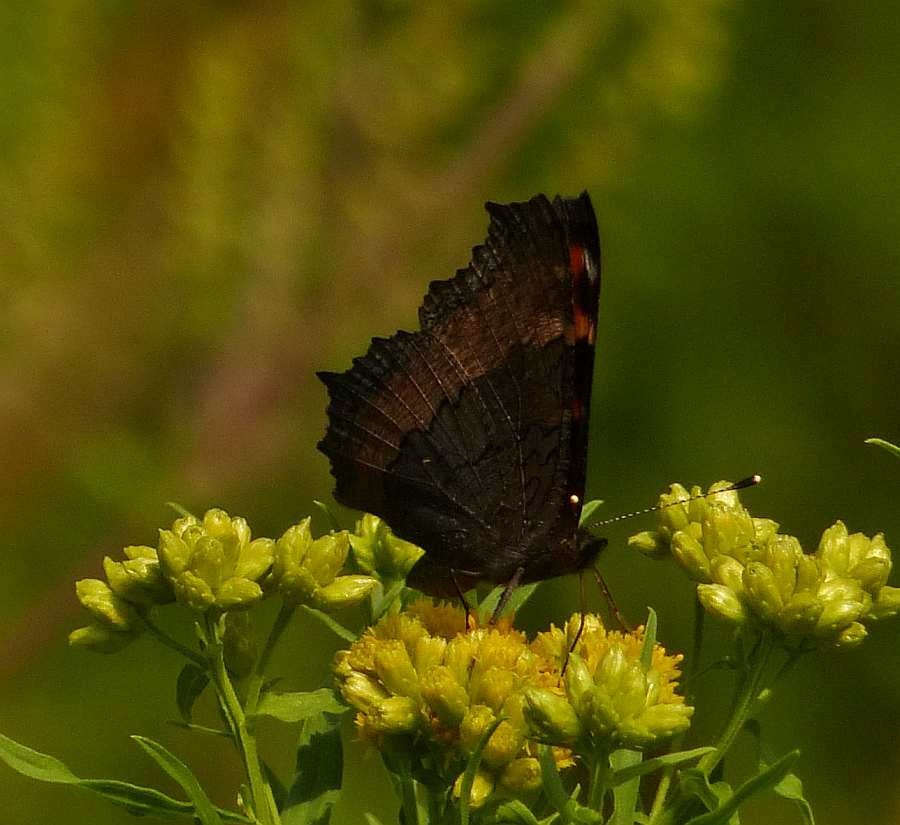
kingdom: Animalia
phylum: Arthropoda
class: Insecta
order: Lepidoptera
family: Nymphalidae
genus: Aglais
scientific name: Aglais milberti
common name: Milbert's tortoiseshell
